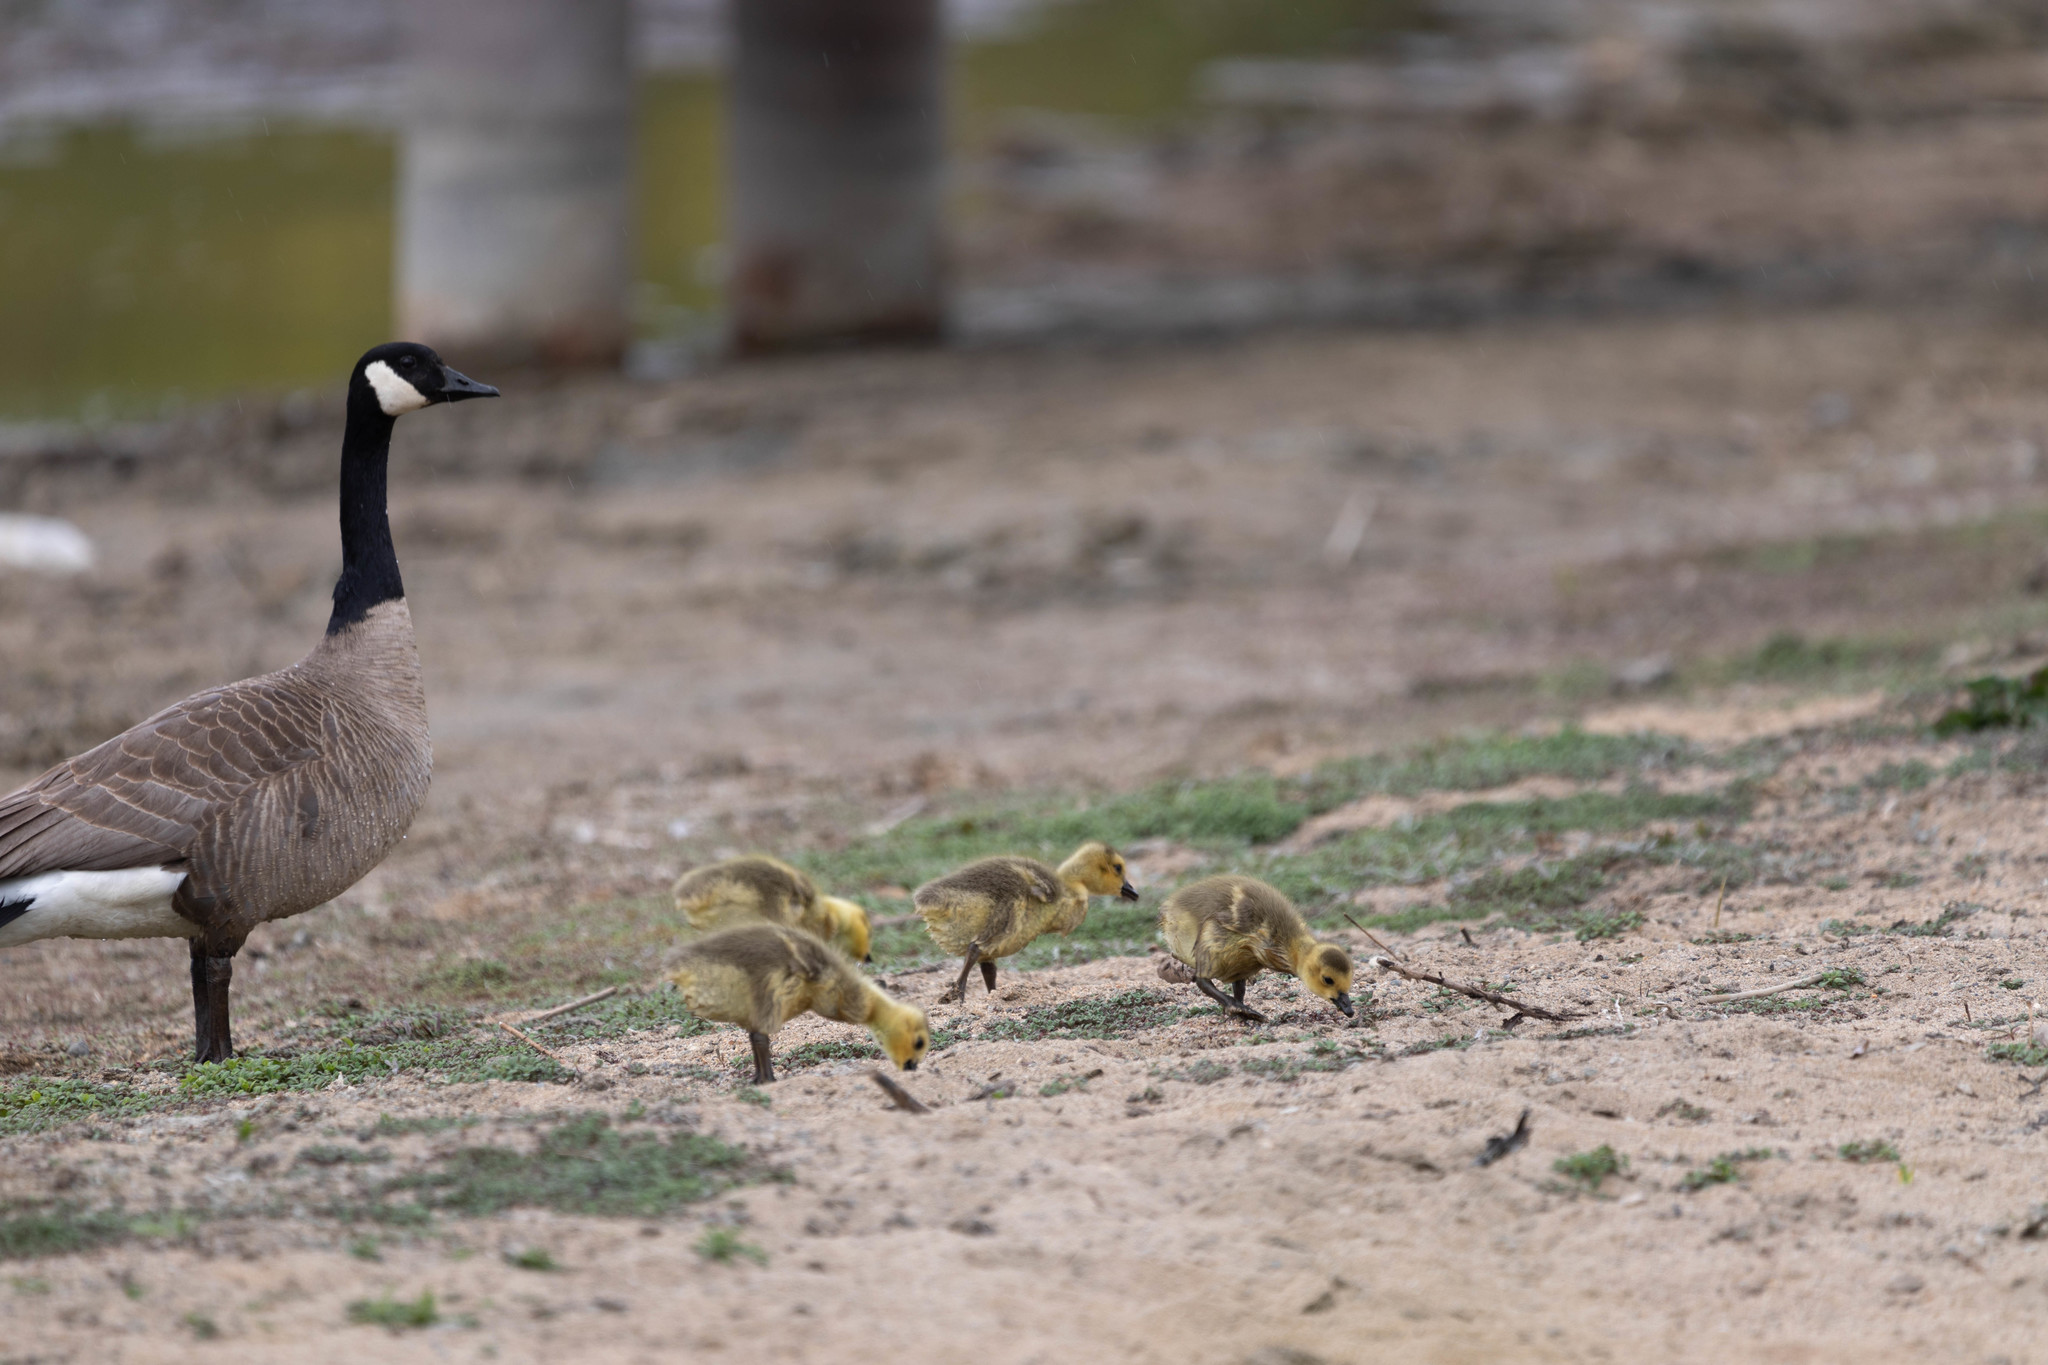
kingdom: Animalia
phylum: Chordata
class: Aves
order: Anseriformes
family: Anatidae
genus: Branta
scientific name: Branta canadensis
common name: Canada goose
